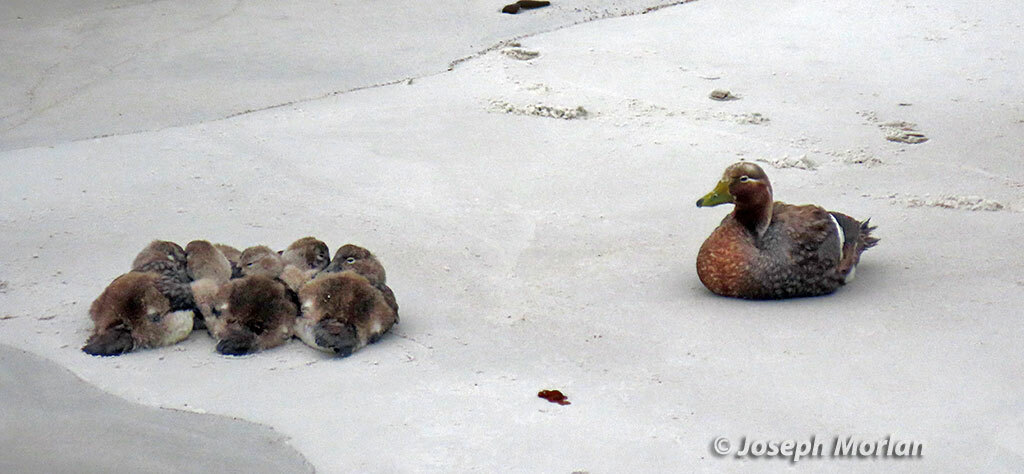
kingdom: Animalia
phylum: Chordata
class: Aves
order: Anseriformes
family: Anatidae
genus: Tachyeres
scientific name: Tachyeres brachypterus
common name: Falkland steamer duck
